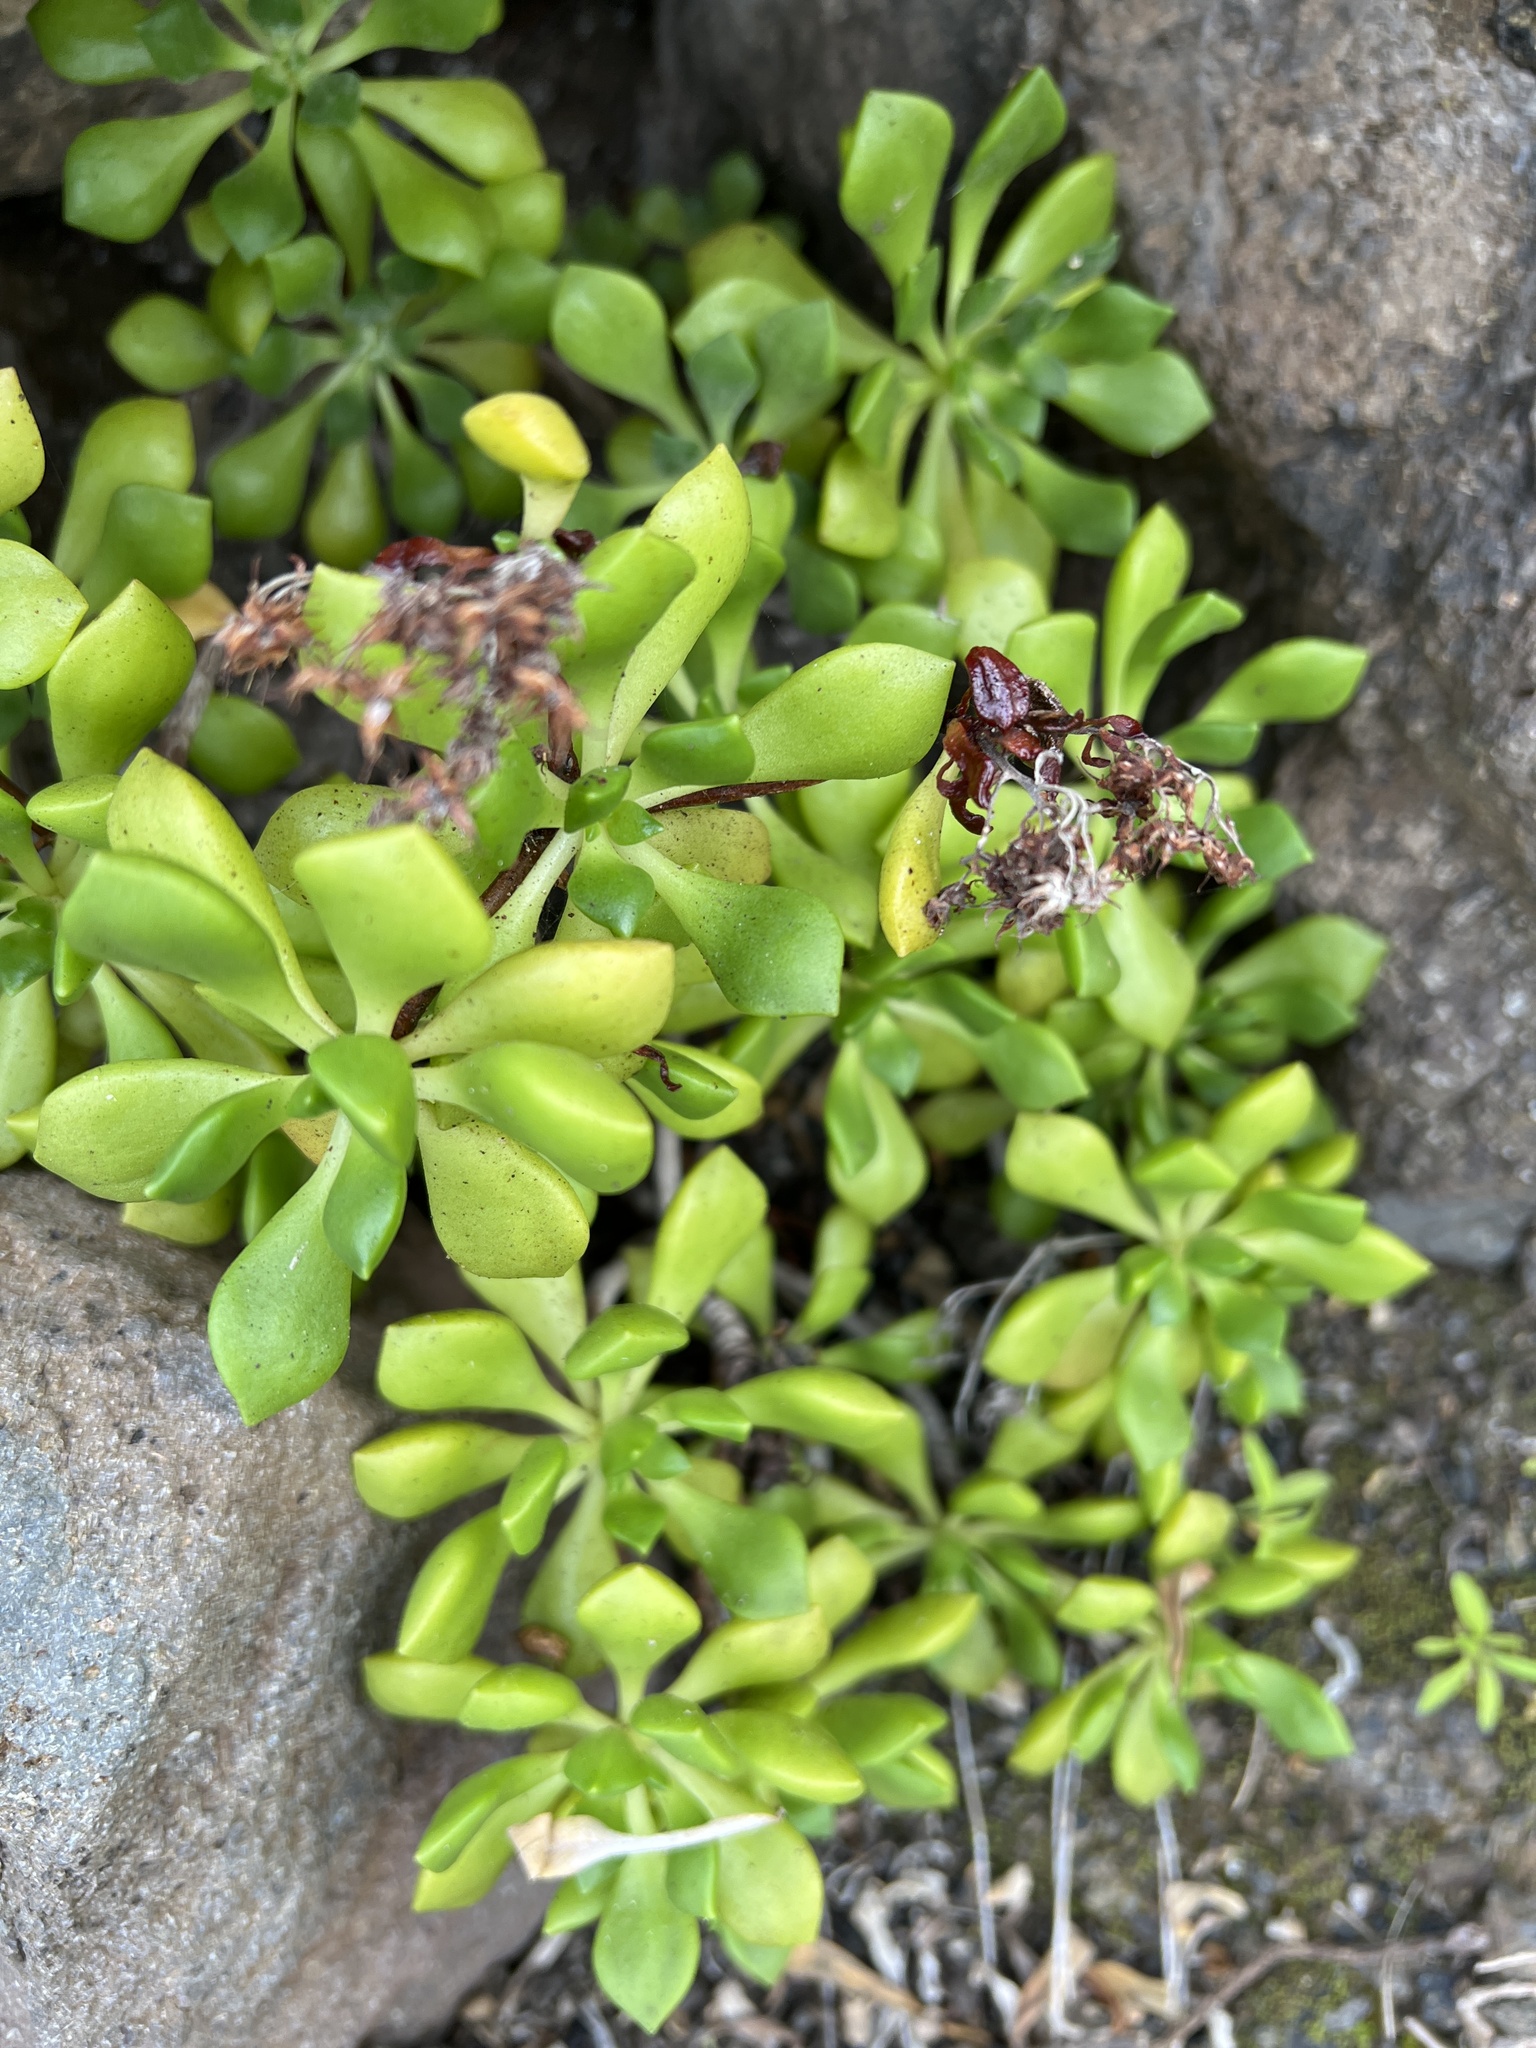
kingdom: Plantae
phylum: Tracheophyta
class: Magnoliopsida
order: Saxifragales
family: Crassulaceae
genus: Aeonium
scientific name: Aeonium lindleyi
